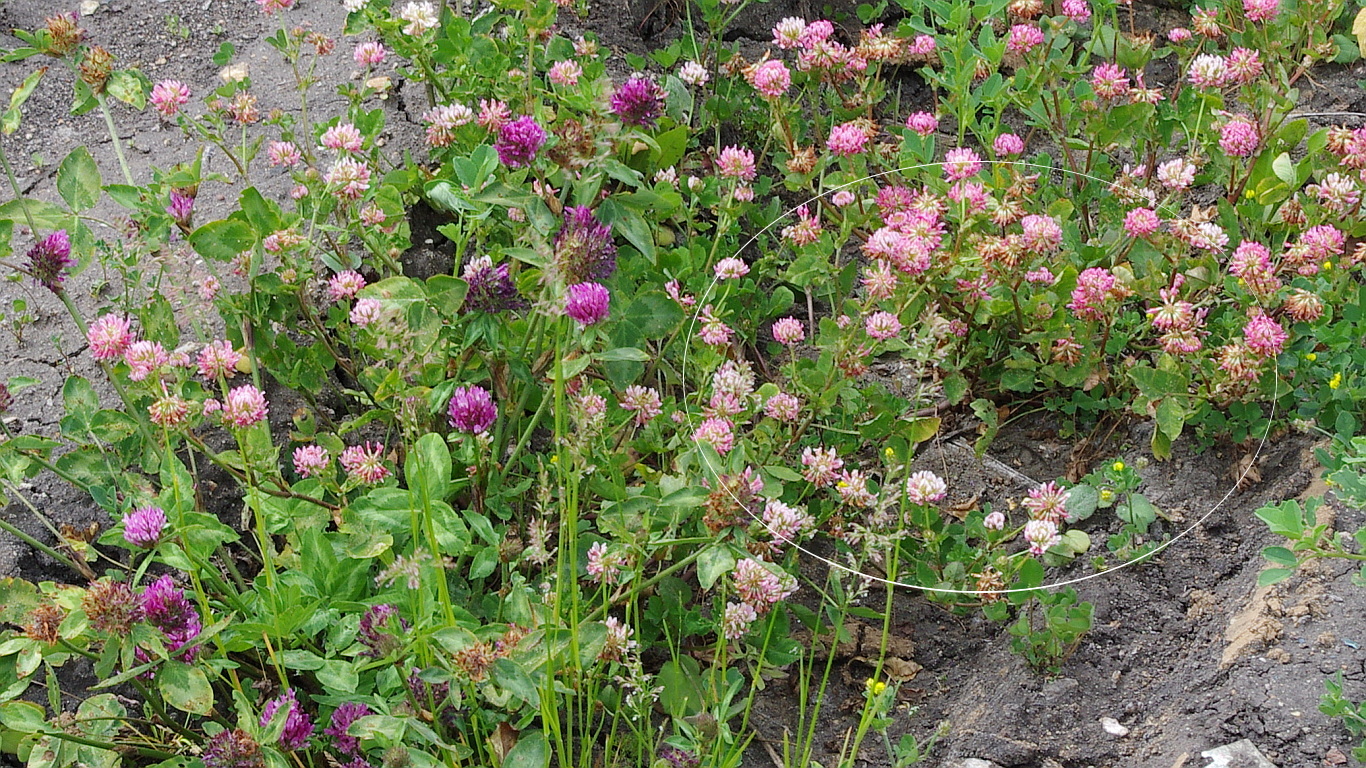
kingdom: Plantae
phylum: Tracheophyta
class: Magnoliopsida
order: Fabales
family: Fabaceae
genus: Trifolium
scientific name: Trifolium hybridum
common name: Alsike clover
